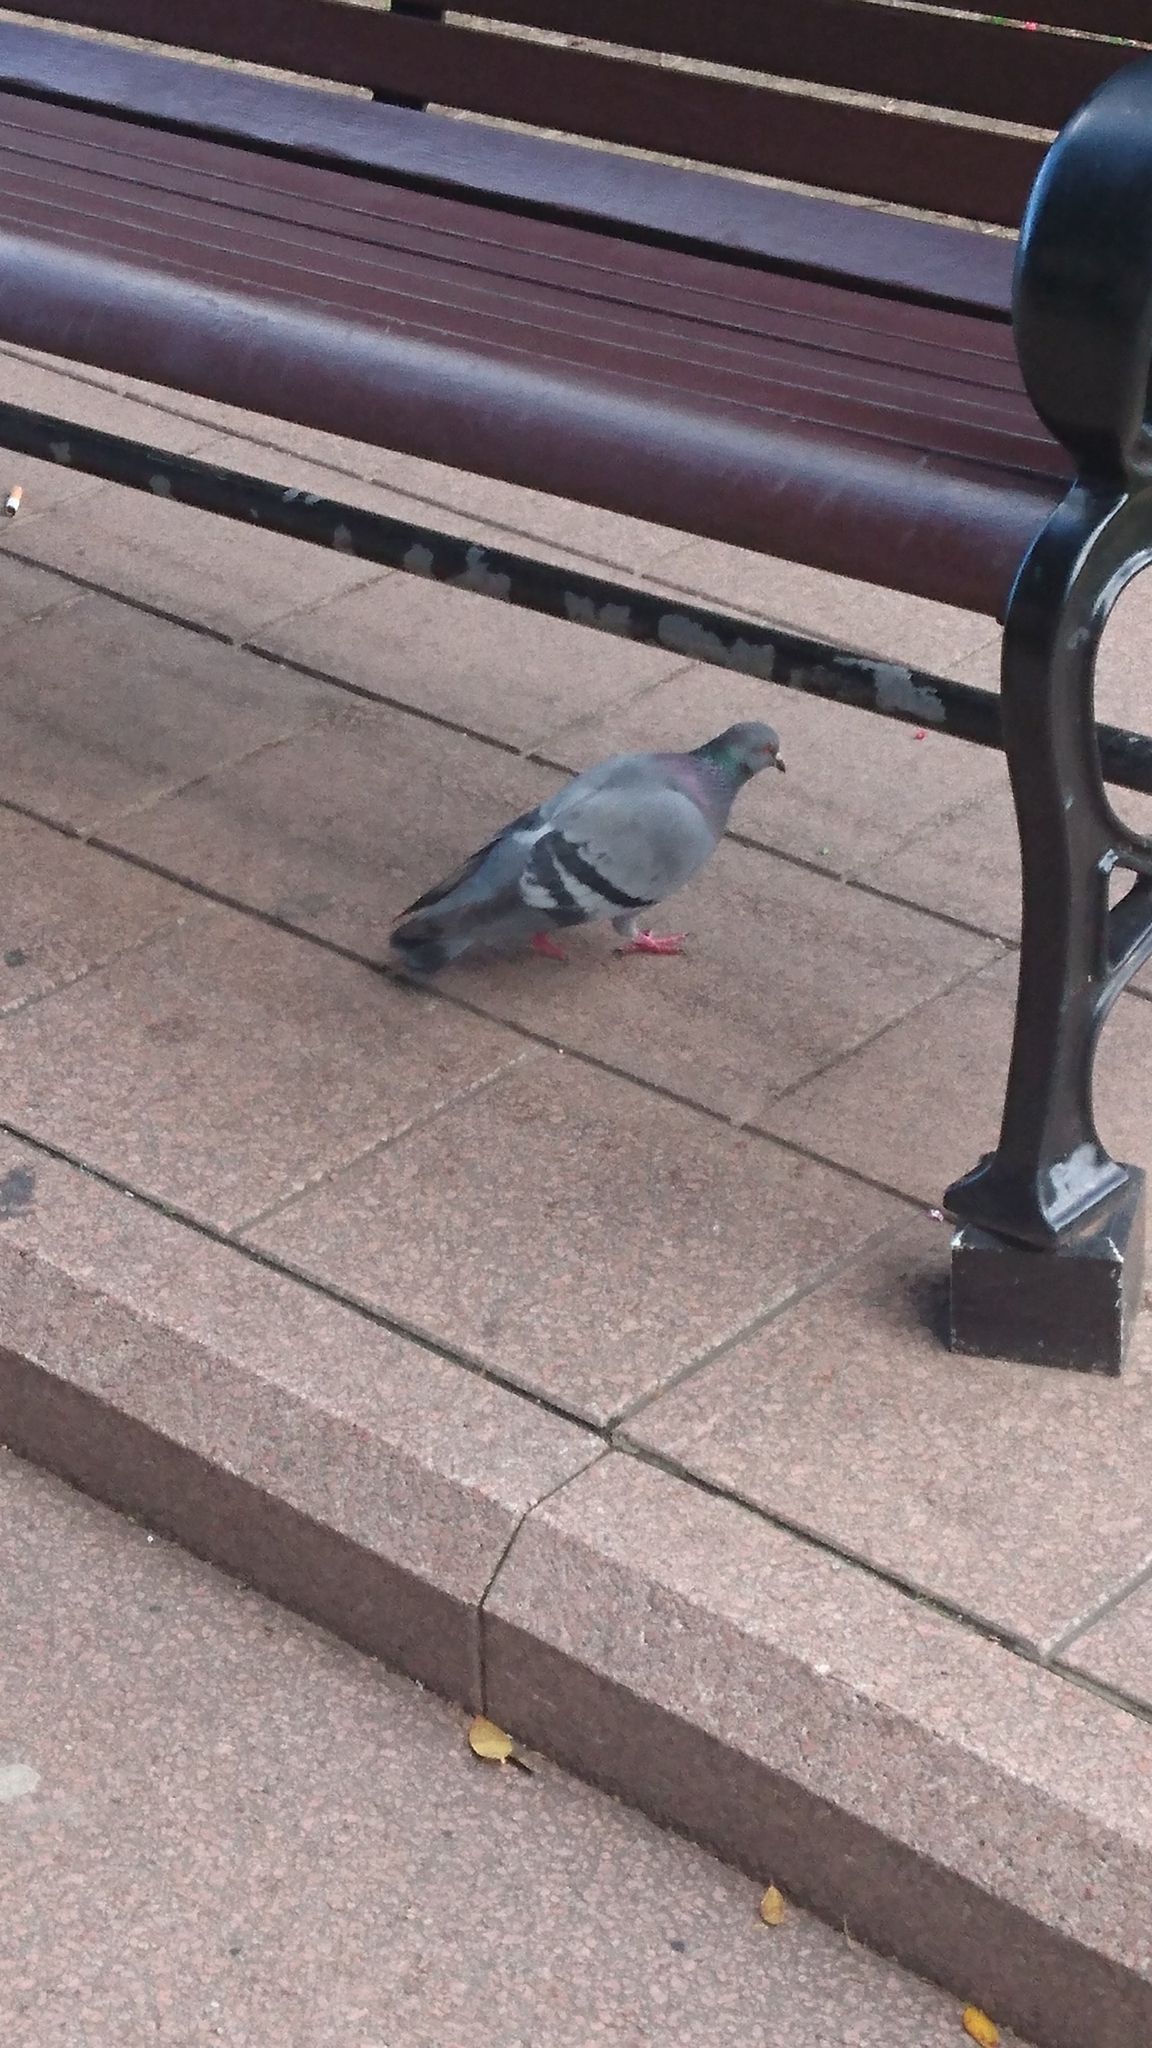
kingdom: Animalia
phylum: Chordata
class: Aves
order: Columbiformes
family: Columbidae
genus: Columba
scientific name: Columba livia
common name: Rock pigeon
